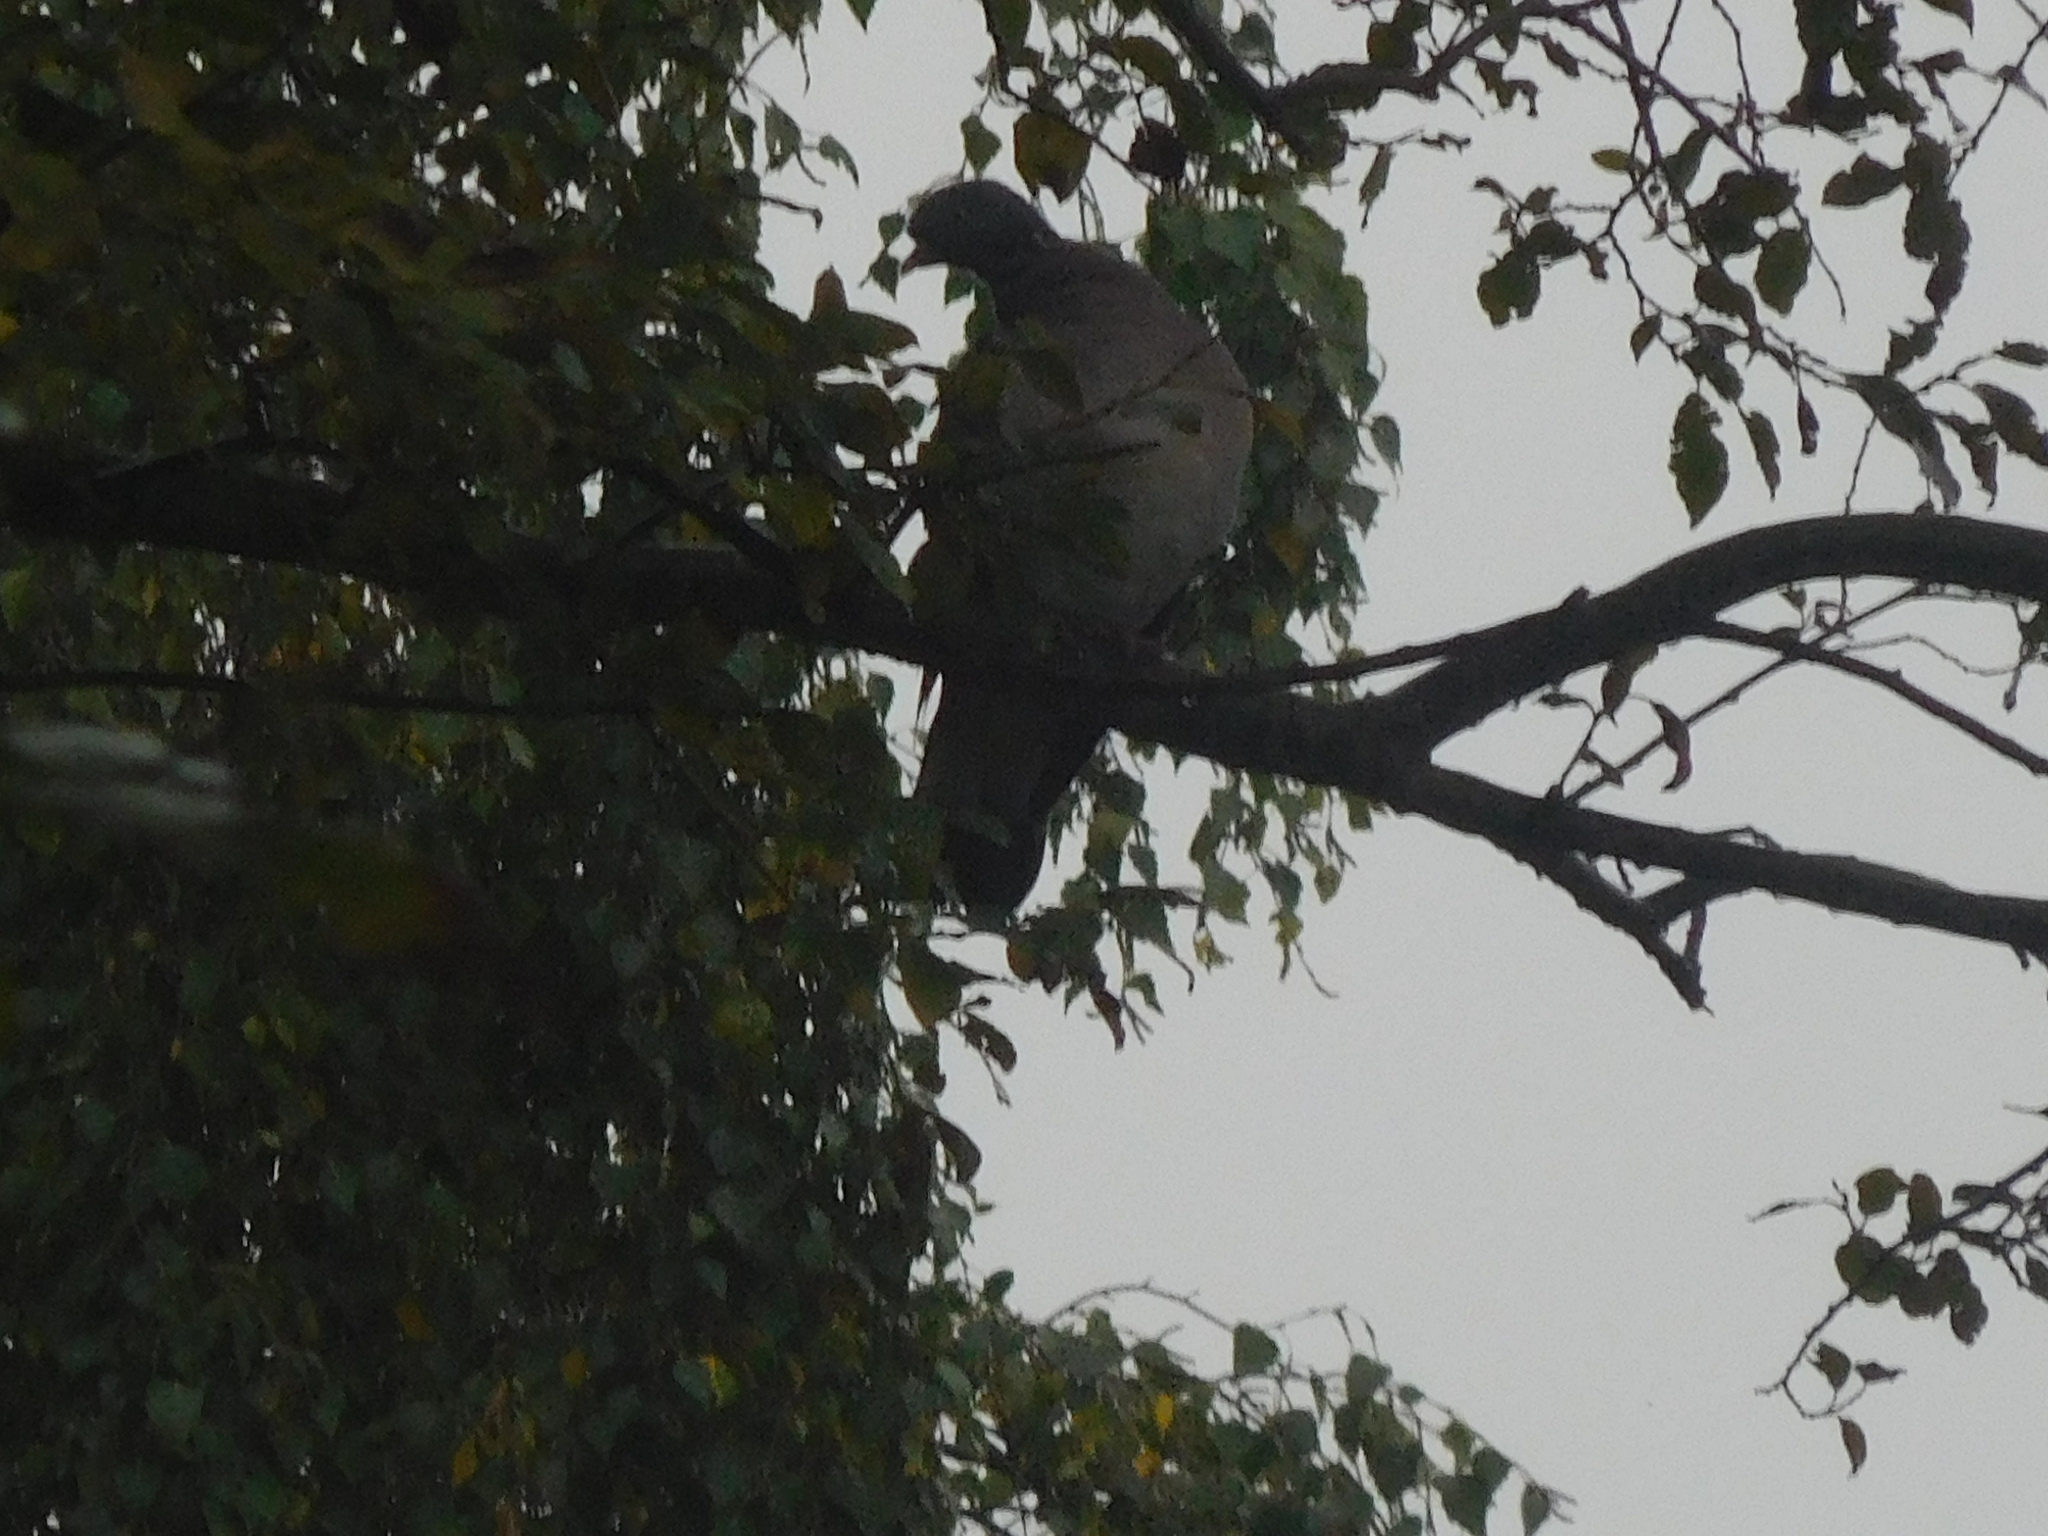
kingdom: Animalia
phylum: Chordata
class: Aves
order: Columbiformes
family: Columbidae
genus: Columba
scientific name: Columba palumbus
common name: Common wood pigeon
